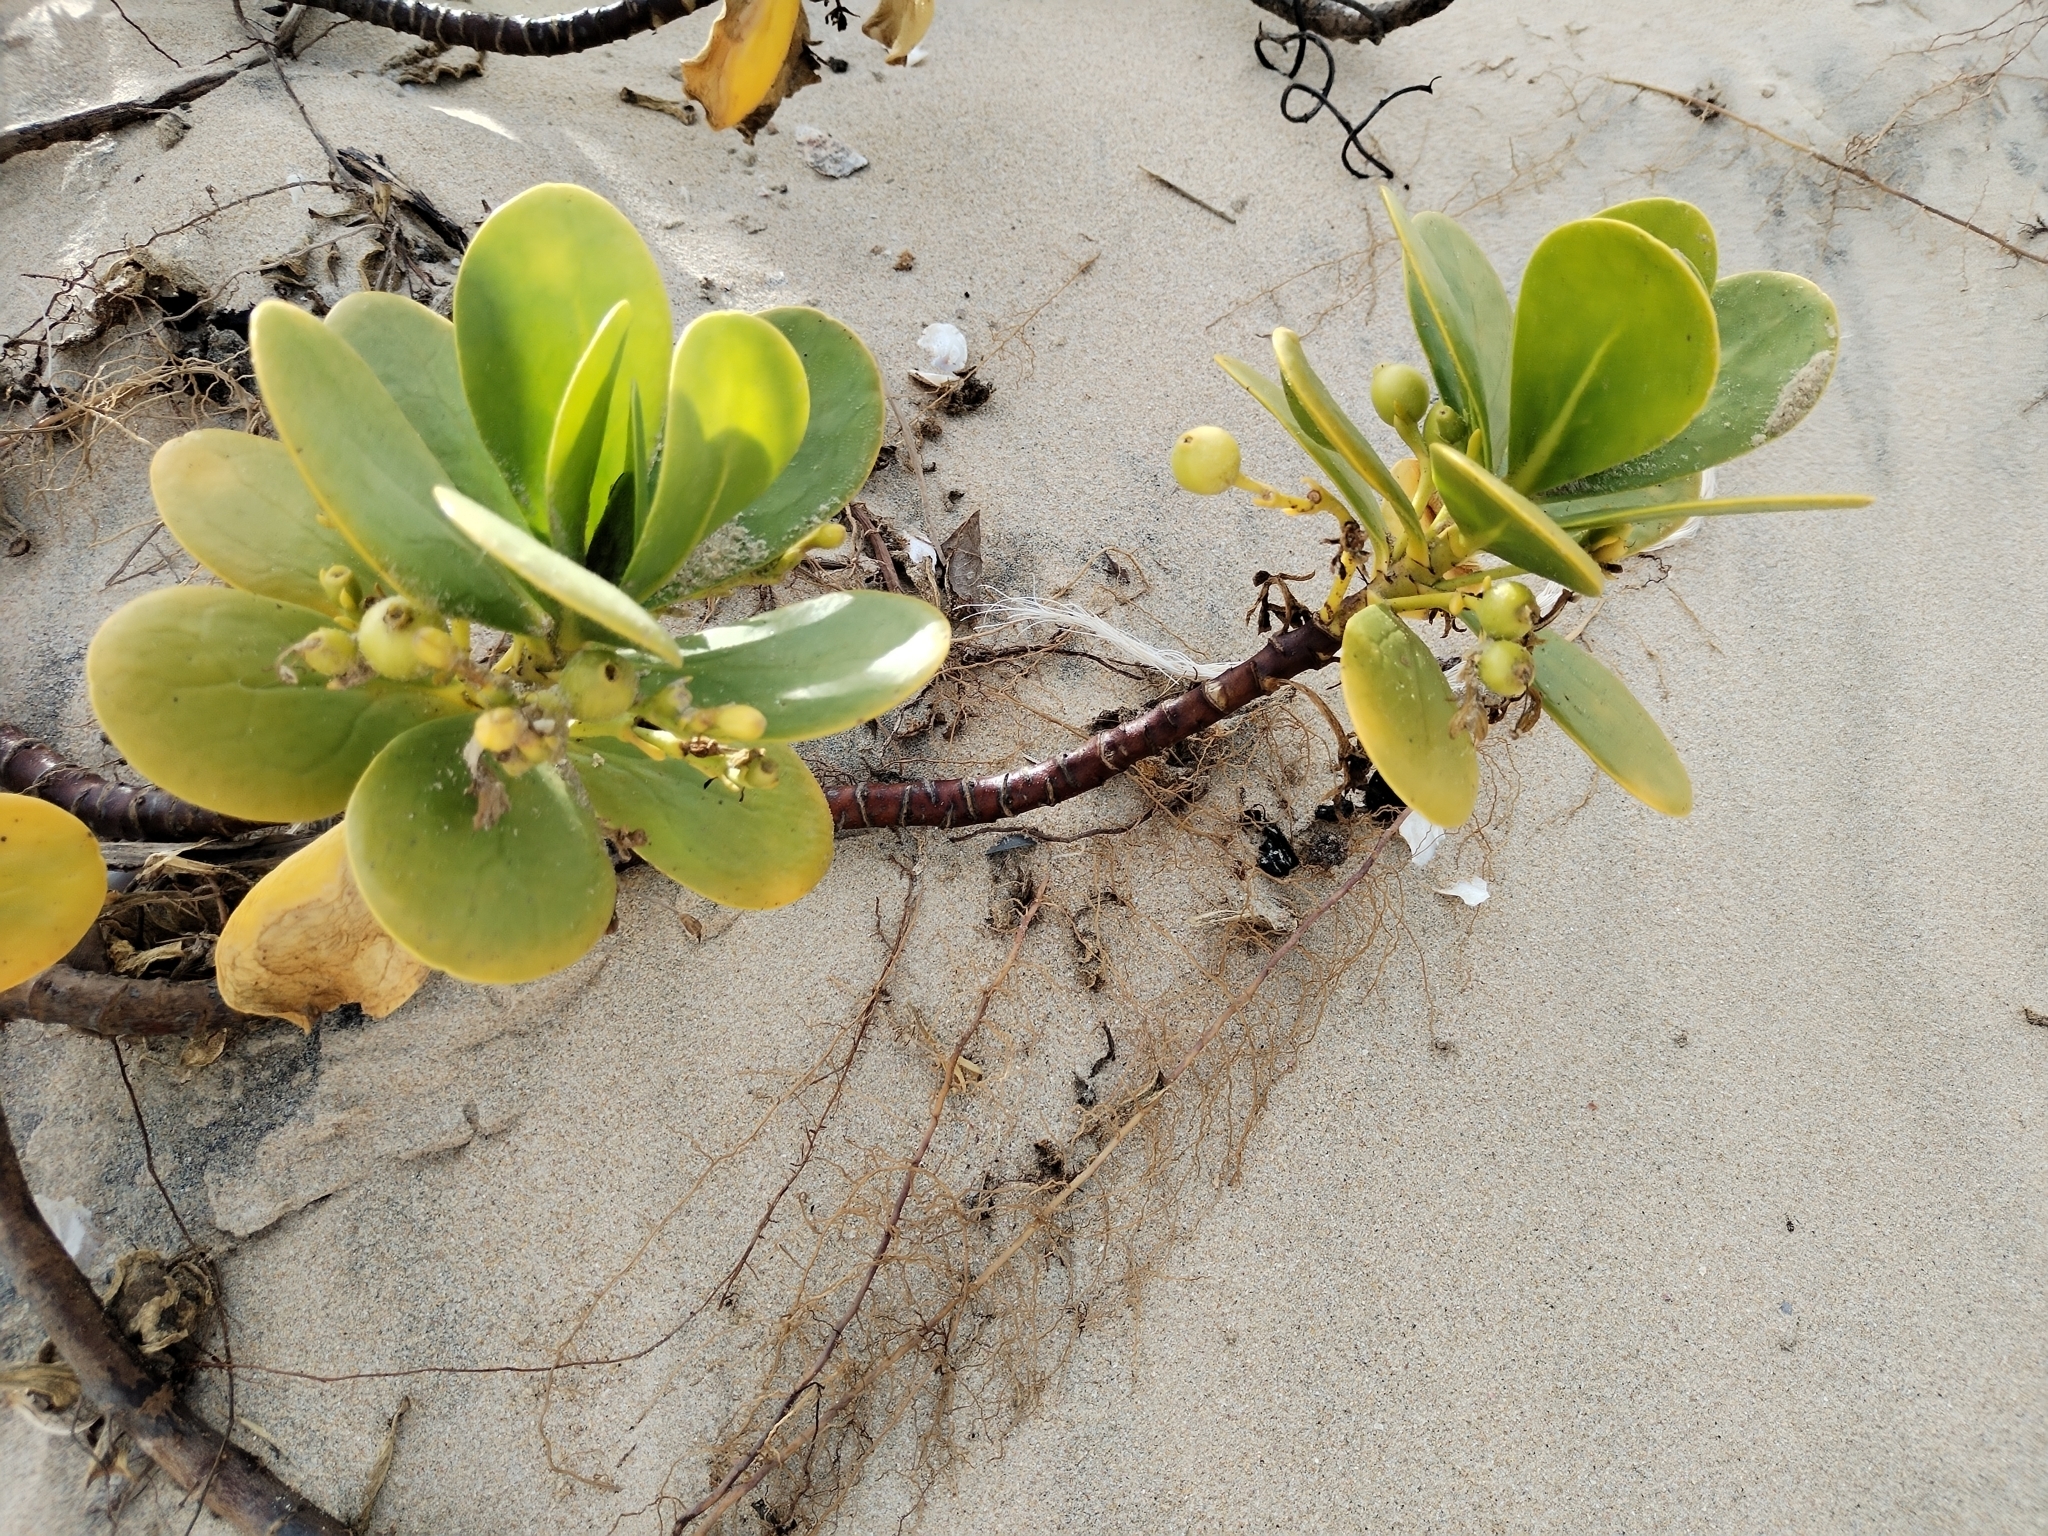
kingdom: Plantae
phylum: Tracheophyta
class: Magnoliopsida
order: Asterales
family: Goodeniaceae
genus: Scaevola
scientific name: Scaevola plumieri
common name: Gull feed
